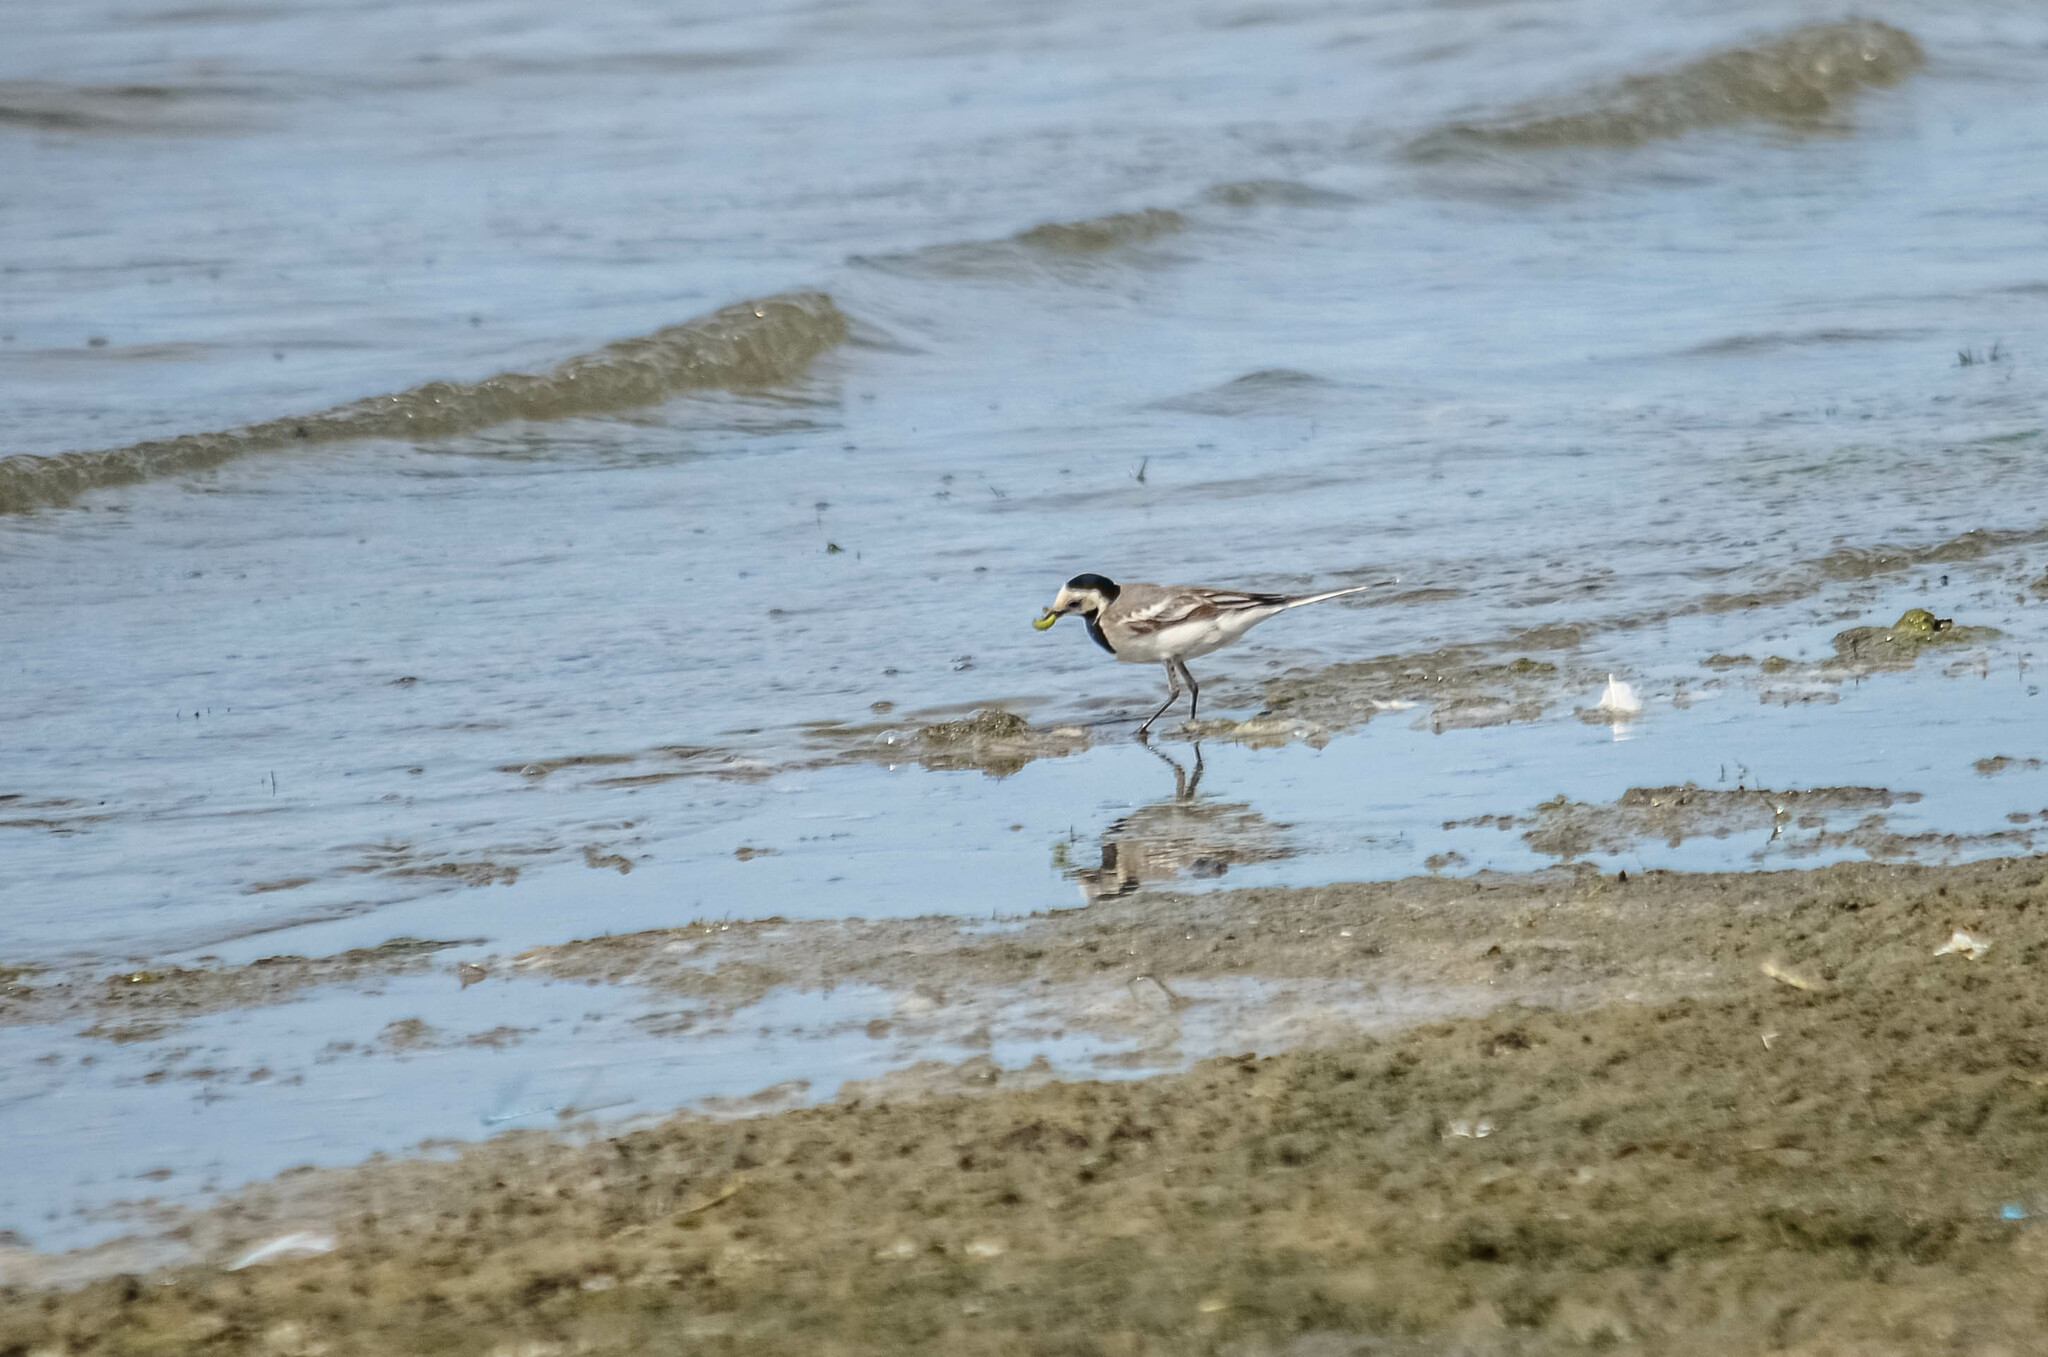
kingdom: Animalia
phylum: Chordata
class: Aves
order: Passeriformes
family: Motacillidae
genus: Motacilla
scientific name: Motacilla alba
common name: White wagtail
